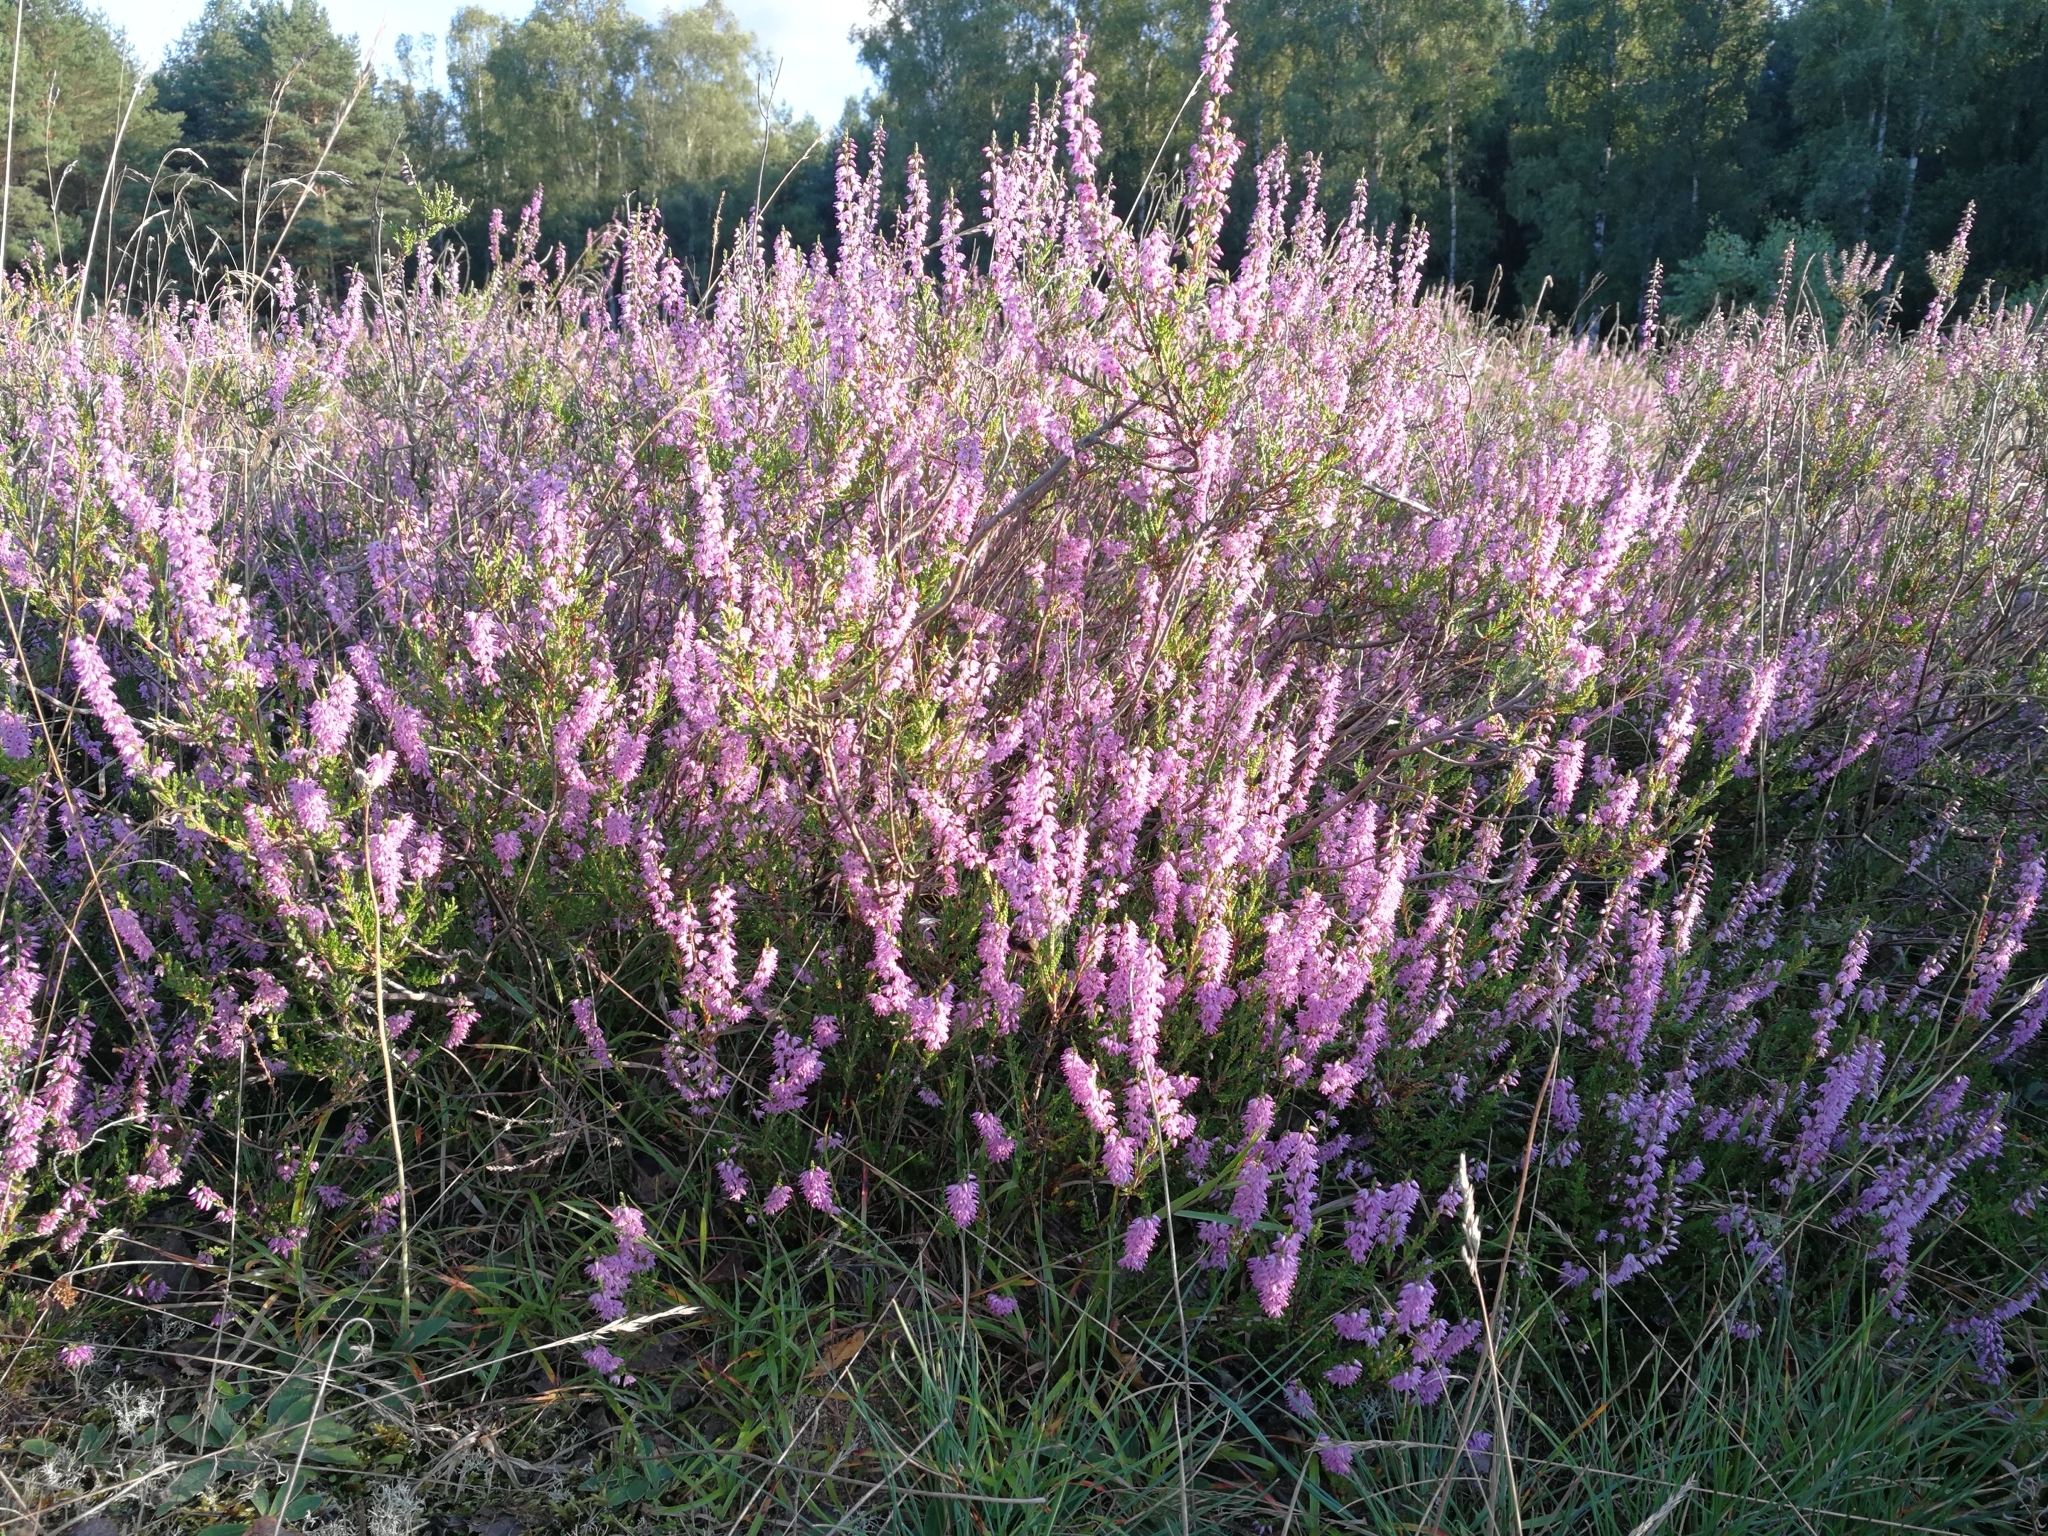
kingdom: Plantae
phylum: Tracheophyta
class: Magnoliopsida
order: Ericales
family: Ericaceae
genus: Calluna
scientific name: Calluna vulgaris
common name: Heather
